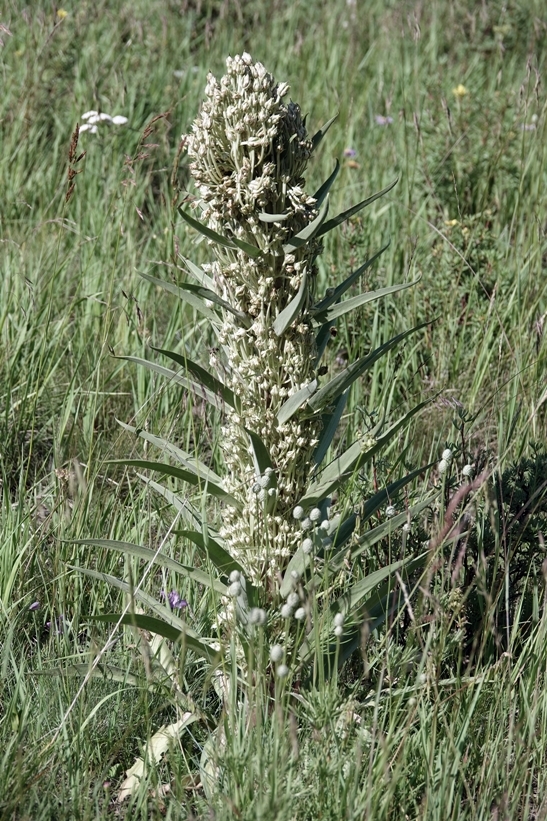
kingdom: Plantae
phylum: Tracheophyta
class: Magnoliopsida
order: Gentianales
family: Gentianaceae
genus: Frasera
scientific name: Frasera speciosa
